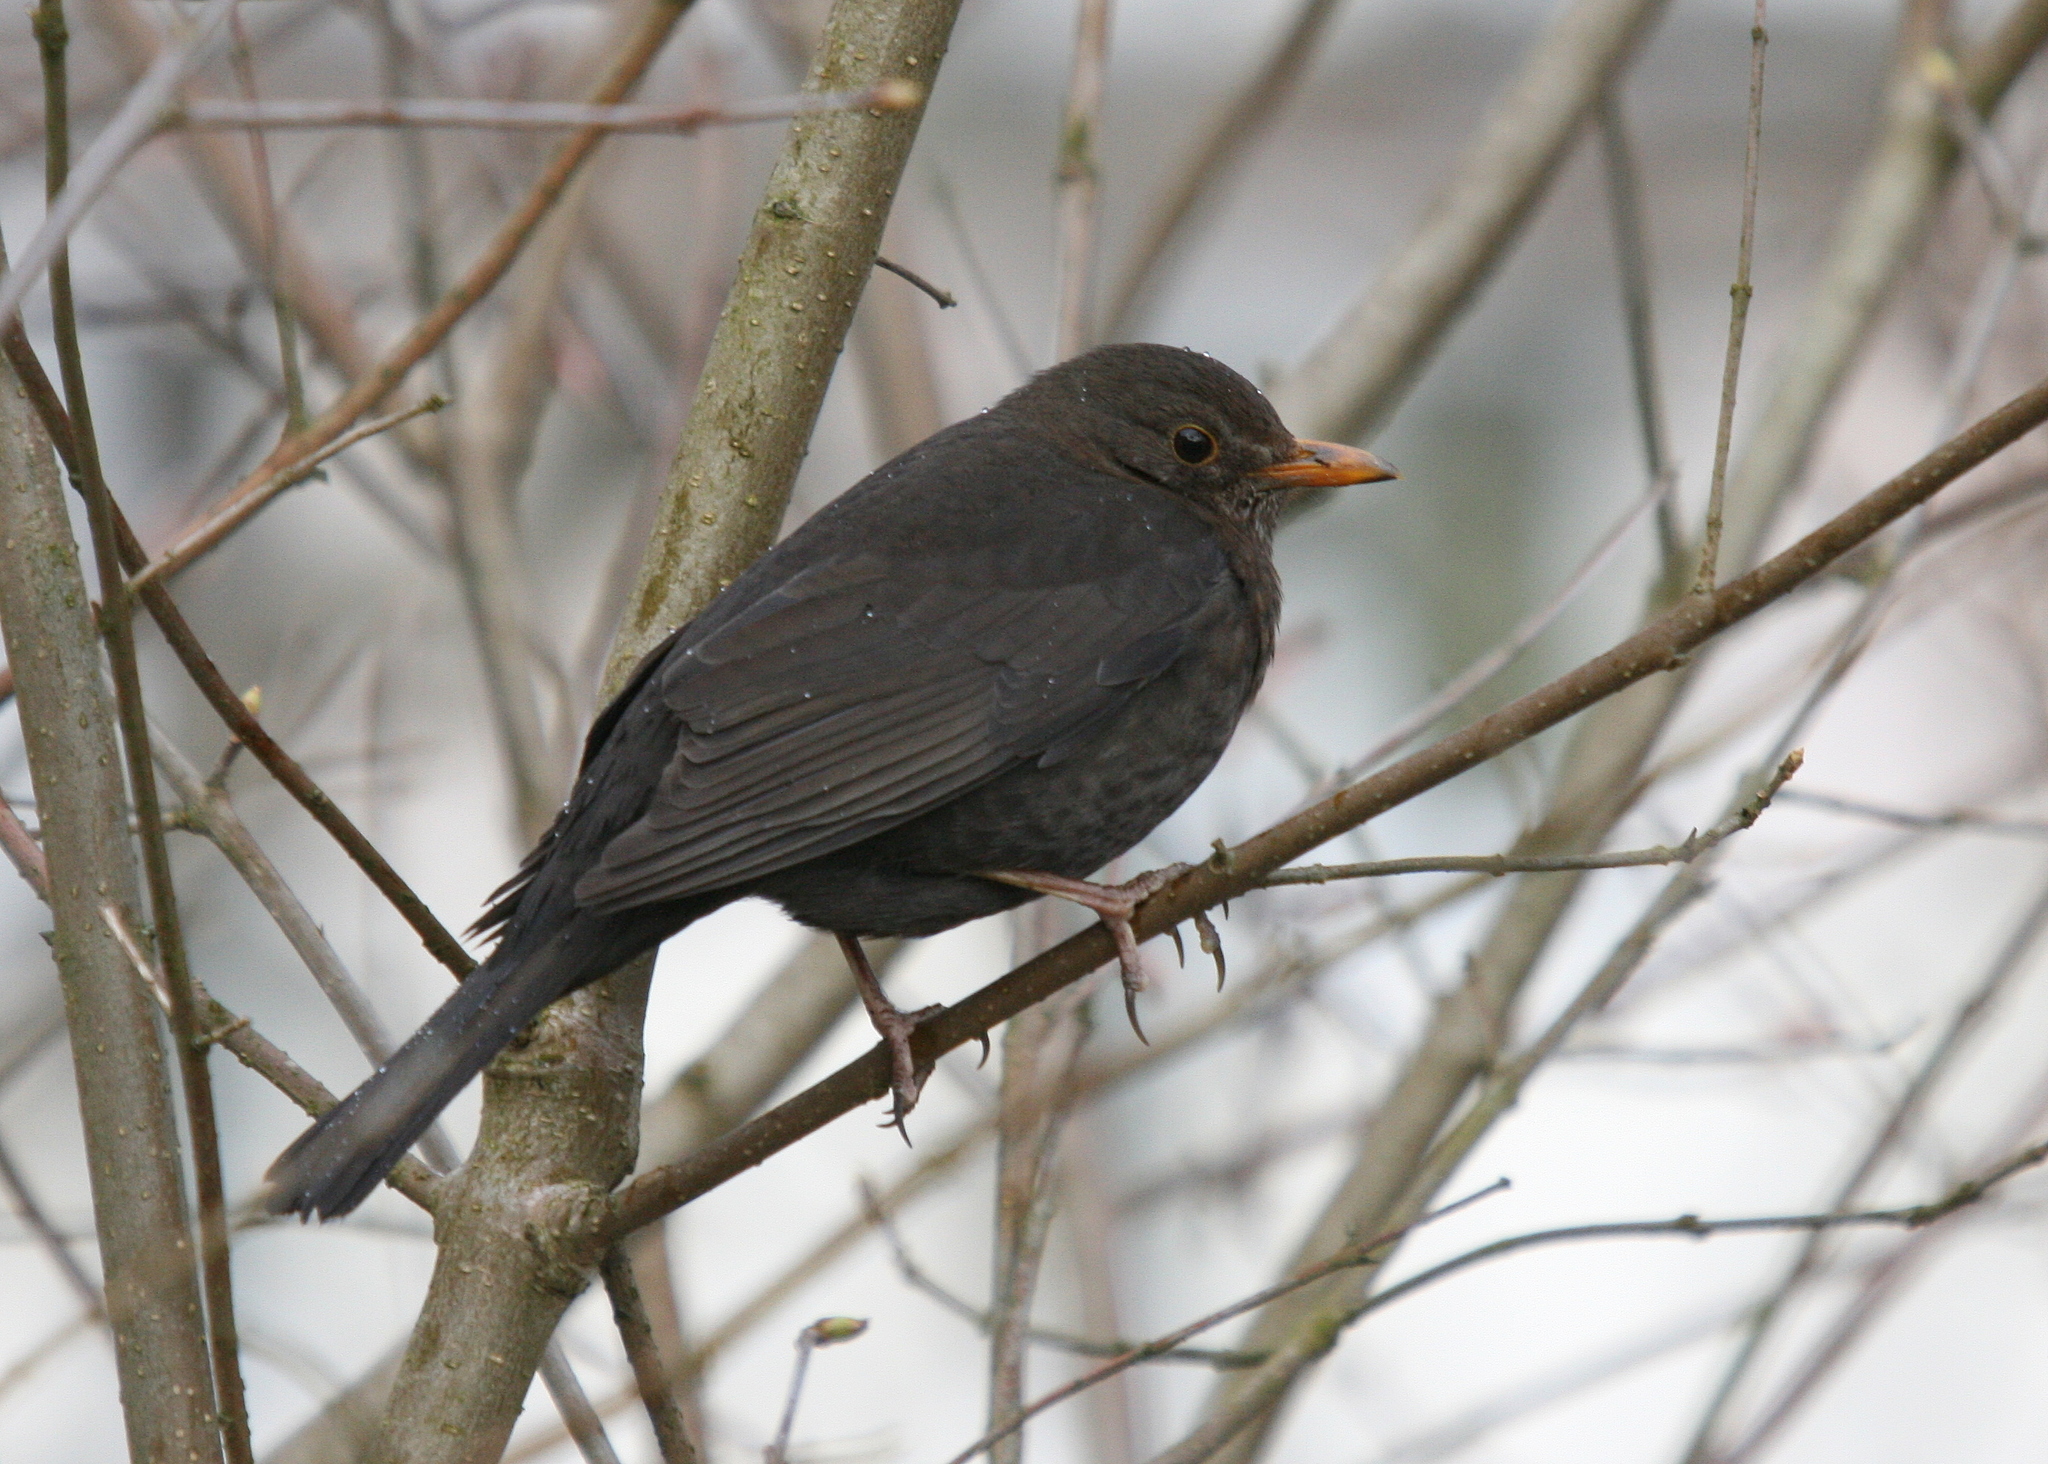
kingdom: Animalia
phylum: Chordata
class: Aves
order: Passeriformes
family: Turdidae
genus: Turdus
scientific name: Turdus merula
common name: Common blackbird
